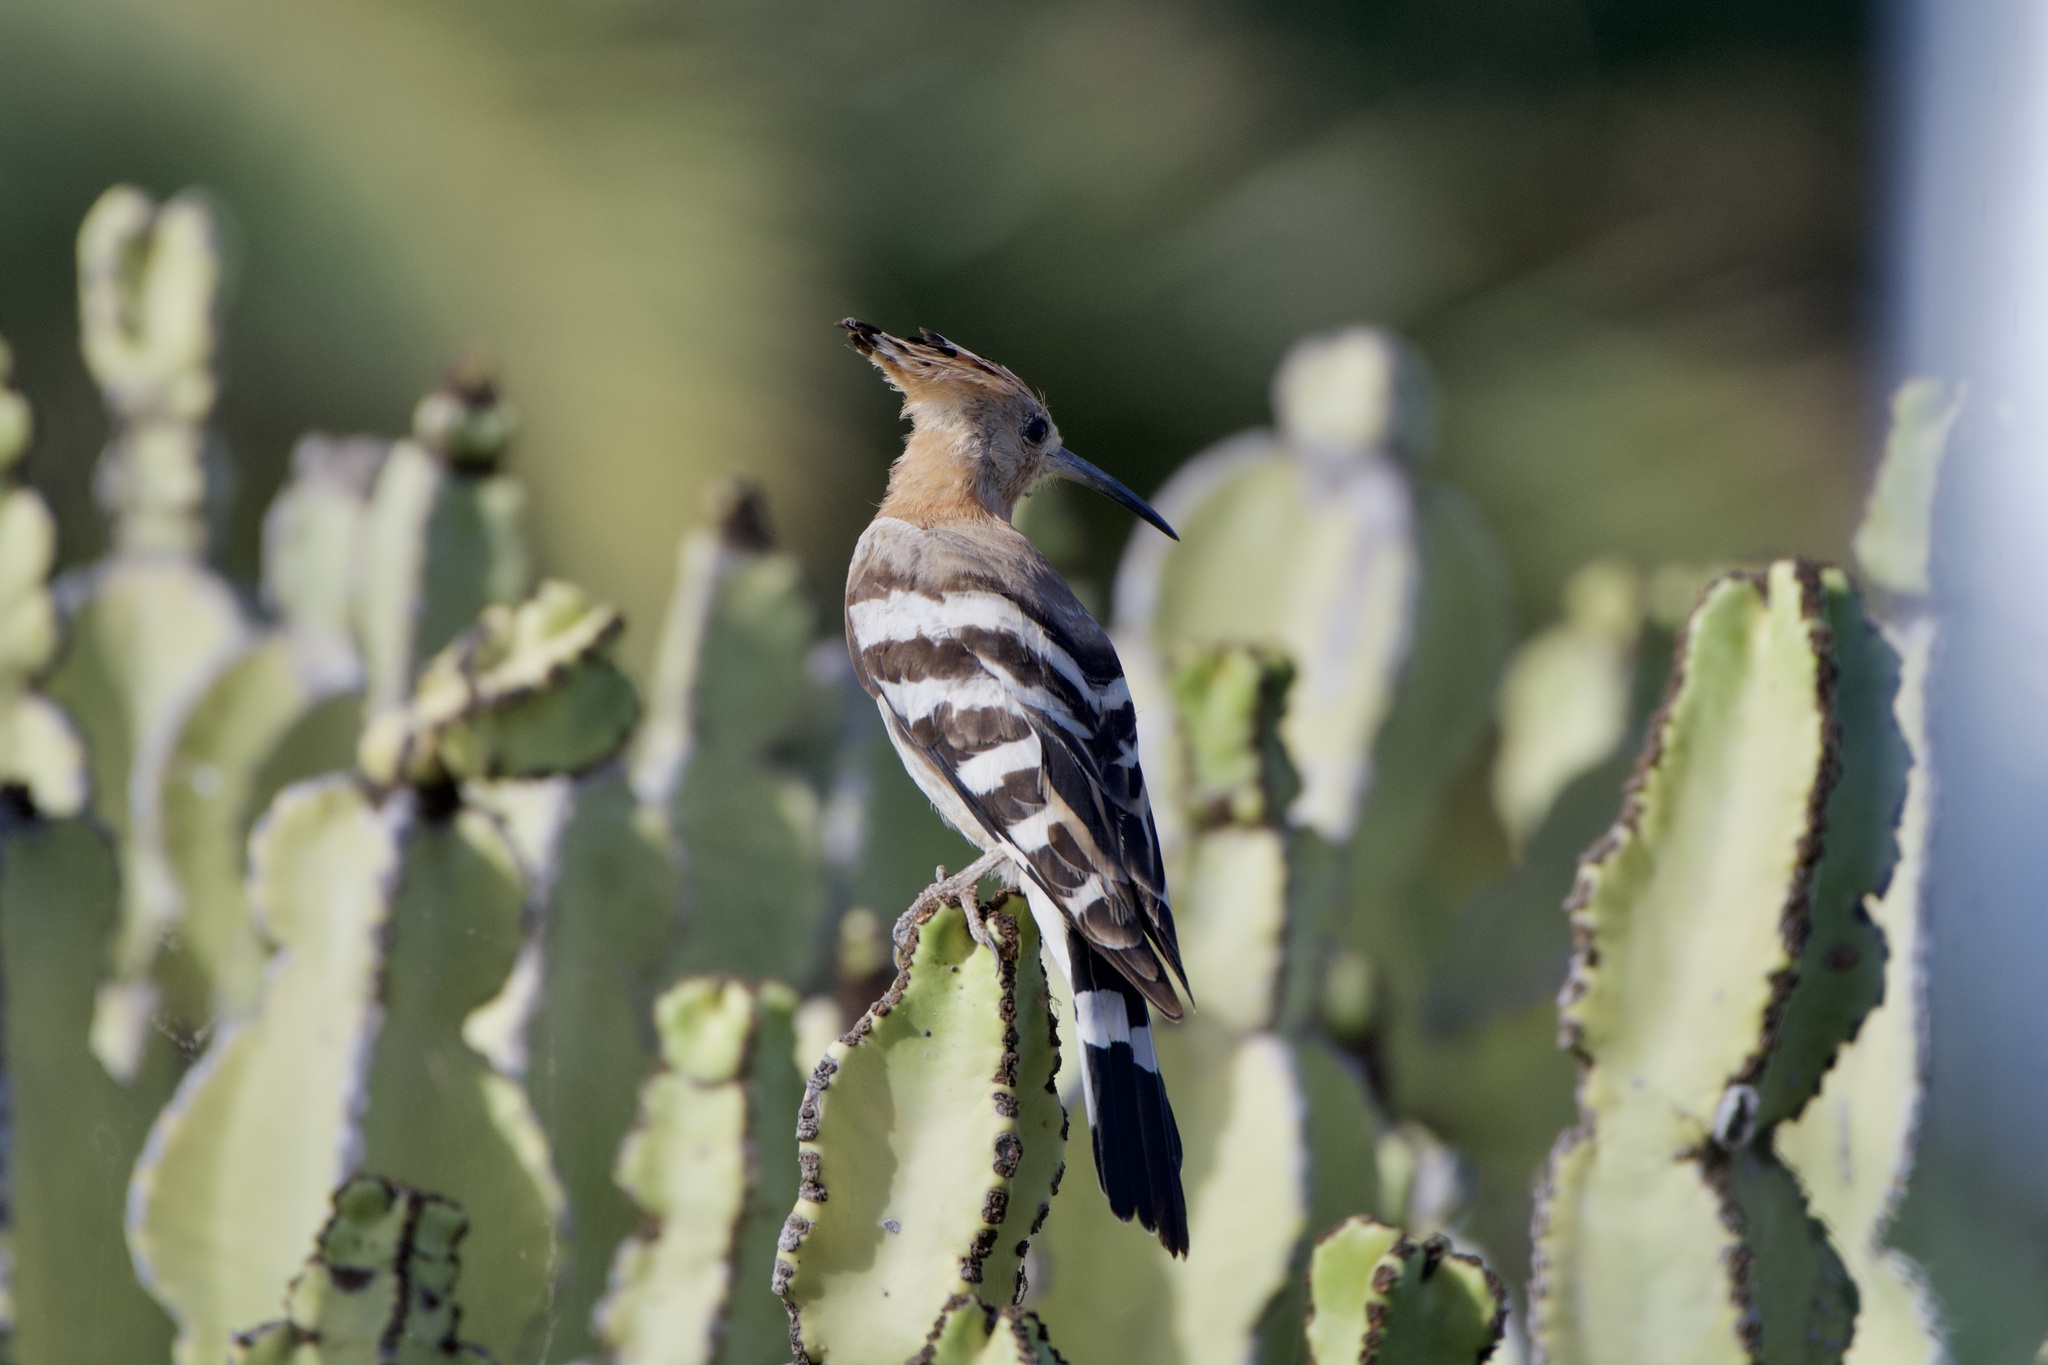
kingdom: Animalia
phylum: Chordata
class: Aves
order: Bucerotiformes
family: Upupidae
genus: Upupa
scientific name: Upupa epops
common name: Eurasian hoopoe
